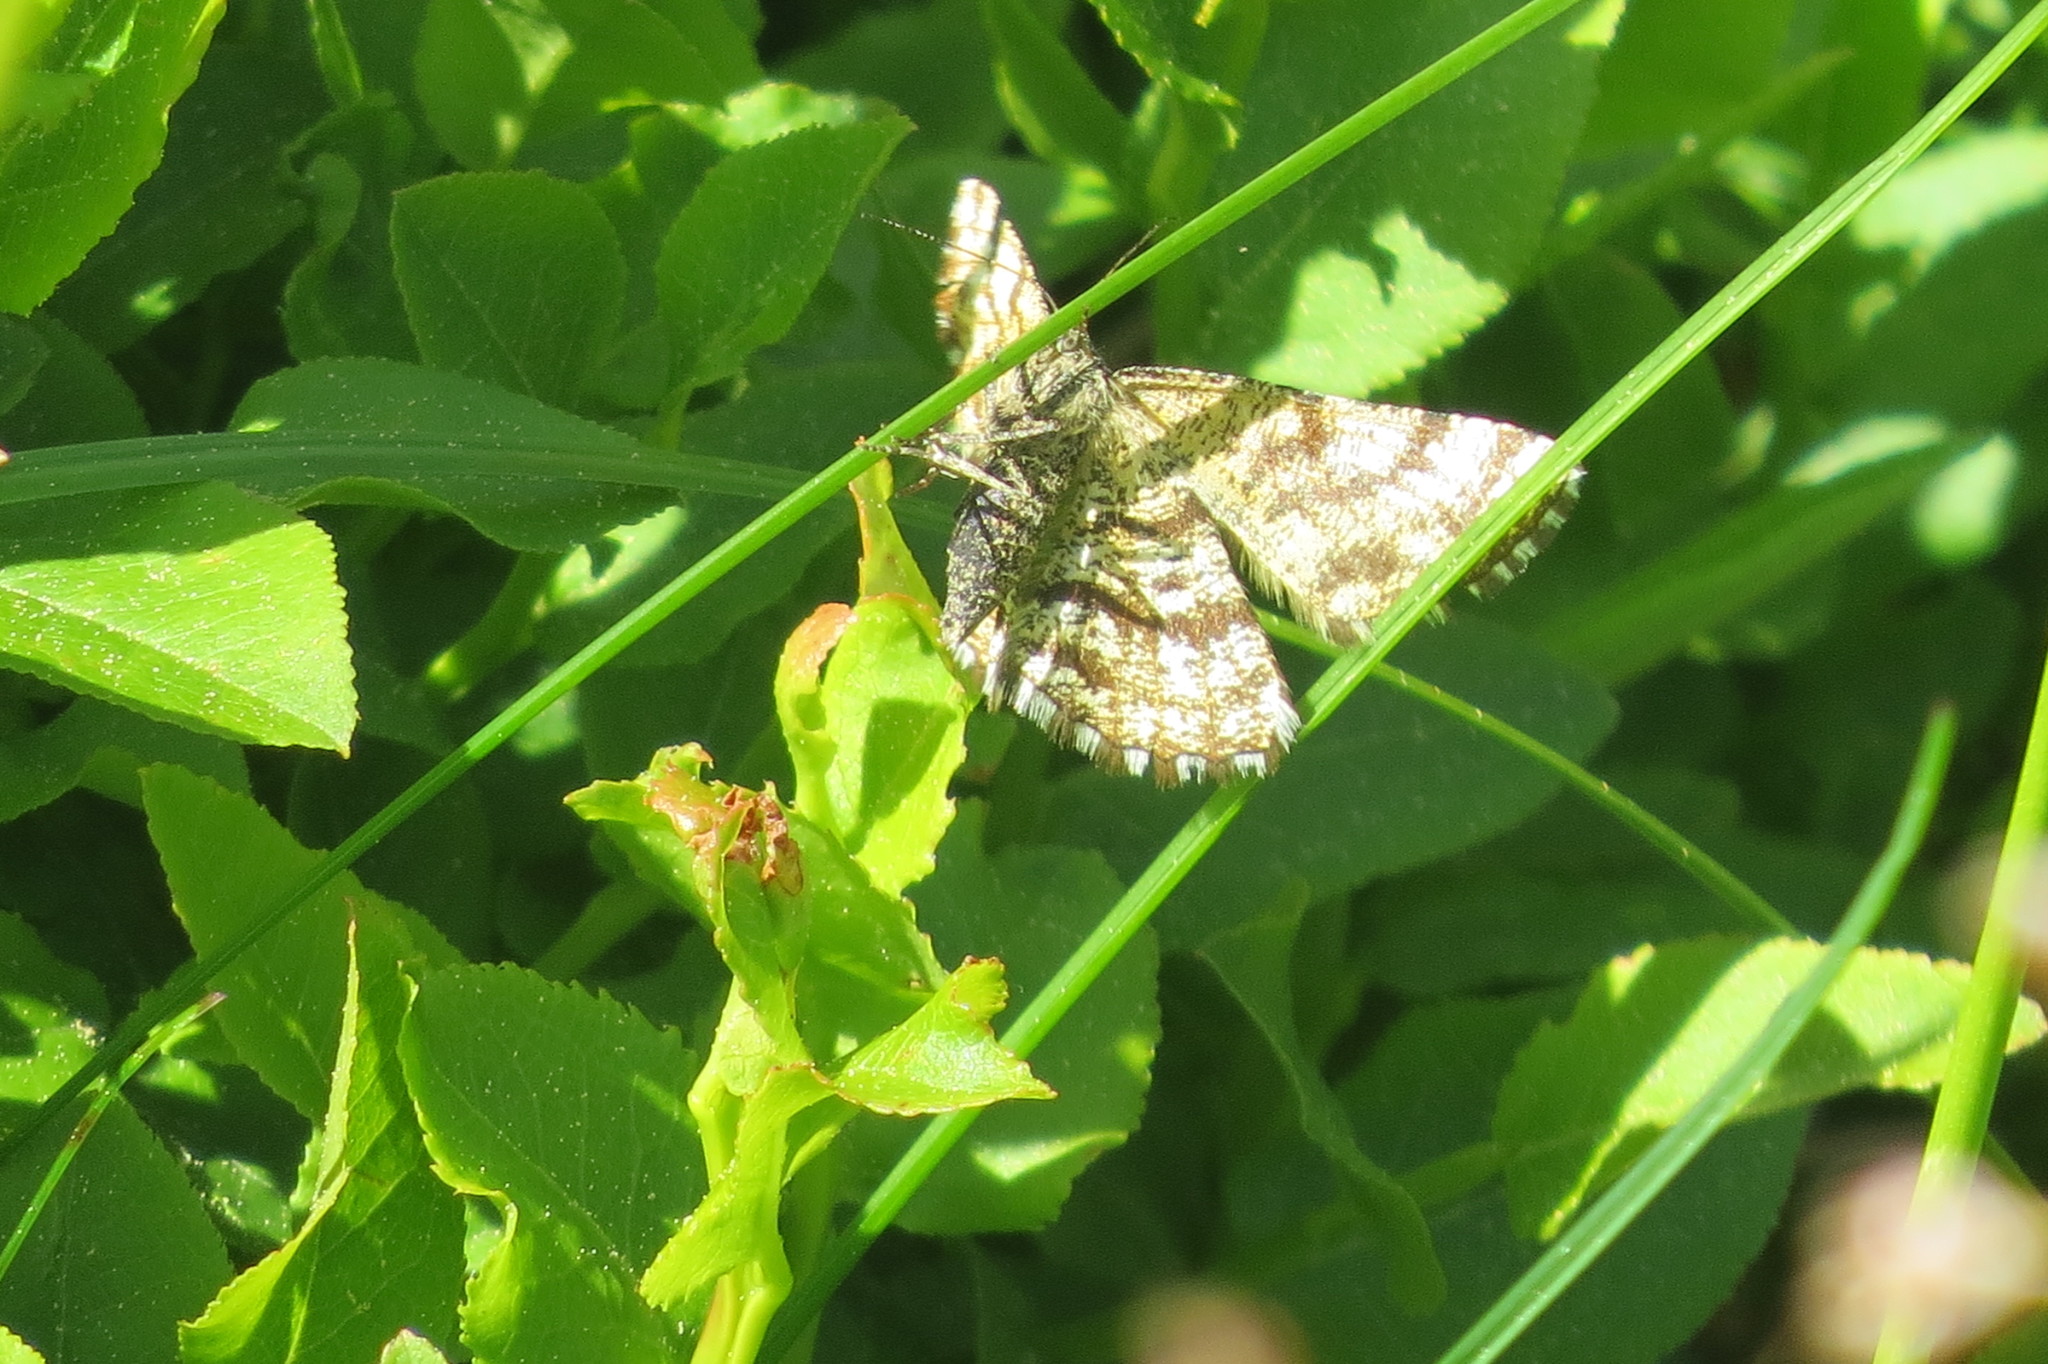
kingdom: Animalia
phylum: Arthropoda
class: Insecta
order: Lepidoptera
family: Geometridae
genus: Ematurga
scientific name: Ematurga atomaria
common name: Common heath
